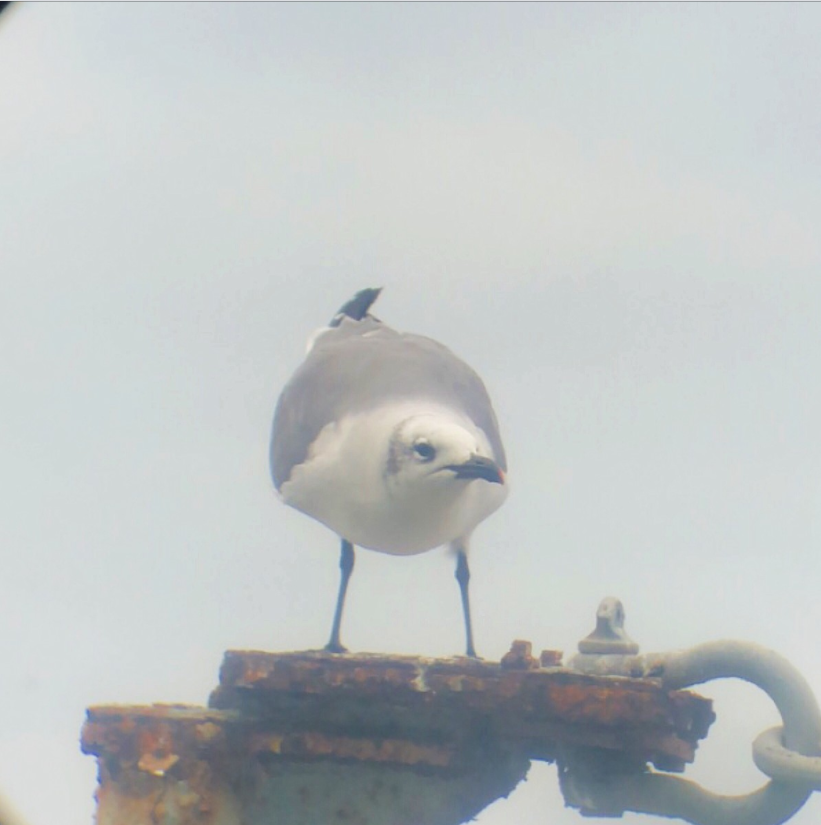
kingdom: Animalia
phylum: Chordata
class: Aves
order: Charadriiformes
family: Laridae
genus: Leucophaeus
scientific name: Leucophaeus atricilla
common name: Laughing gull
